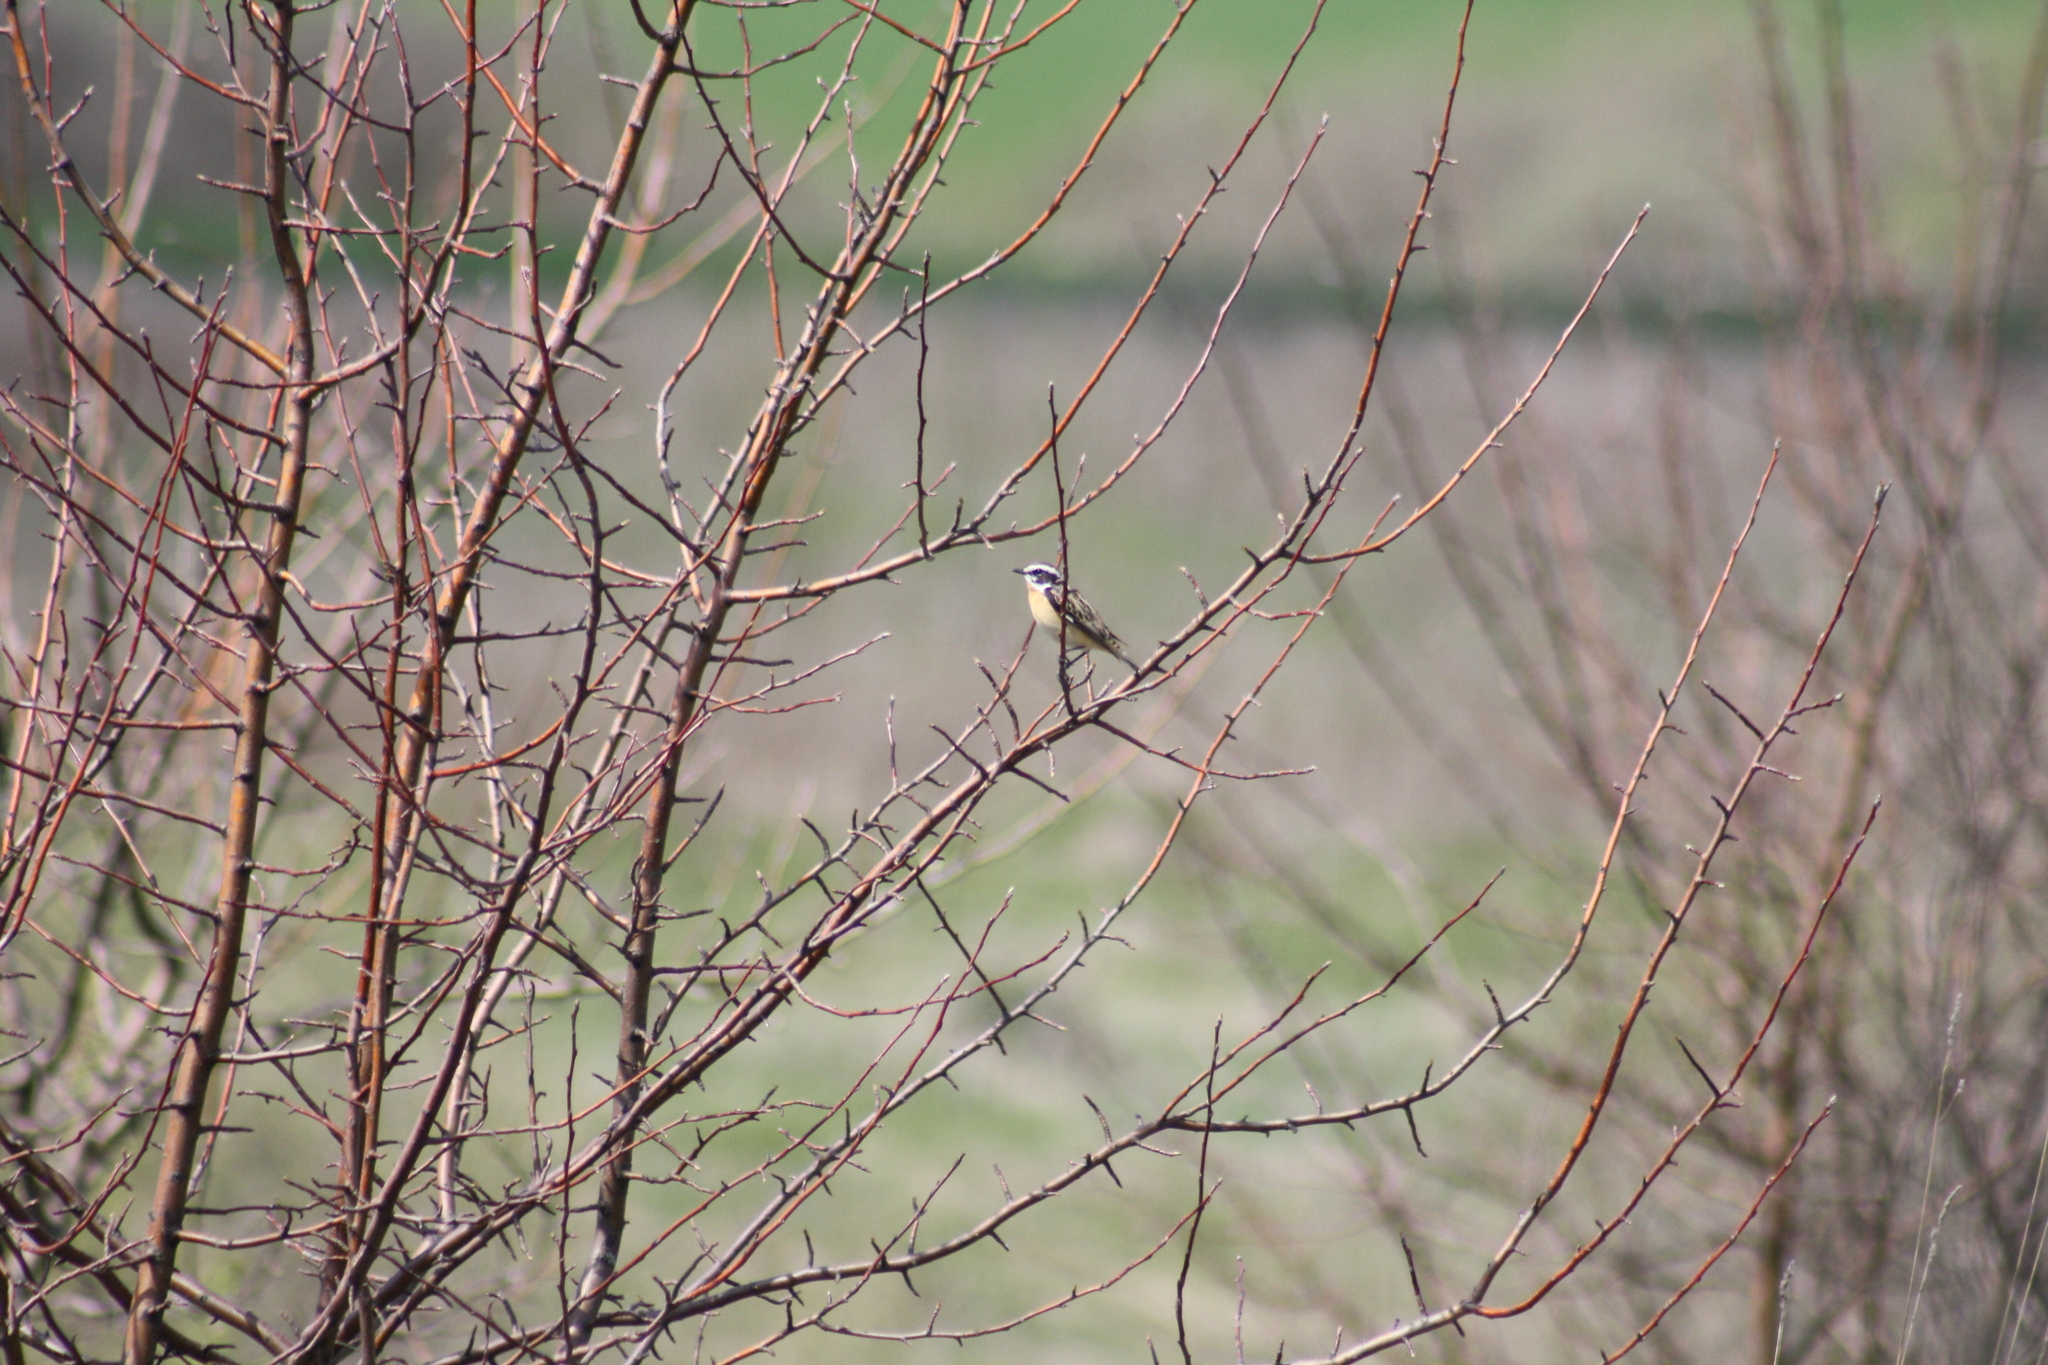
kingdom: Animalia
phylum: Chordata
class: Aves
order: Passeriformes
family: Muscicapidae
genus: Saxicola
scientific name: Saxicola rubetra
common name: Whinchat
